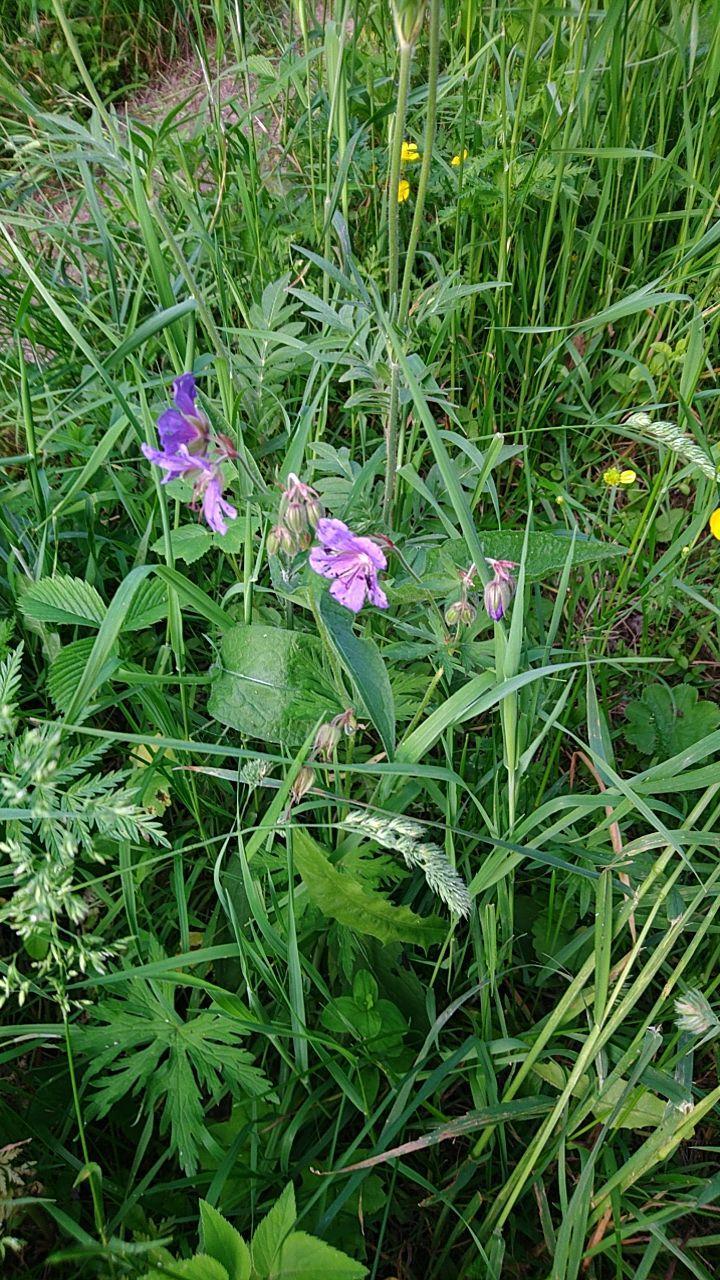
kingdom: Plantae
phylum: Tracheophyta
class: Magnoliopsida
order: Geraniales
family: Geraniaceae
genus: Geranium
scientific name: Geranium pratense
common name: Meadow crane's-bill
